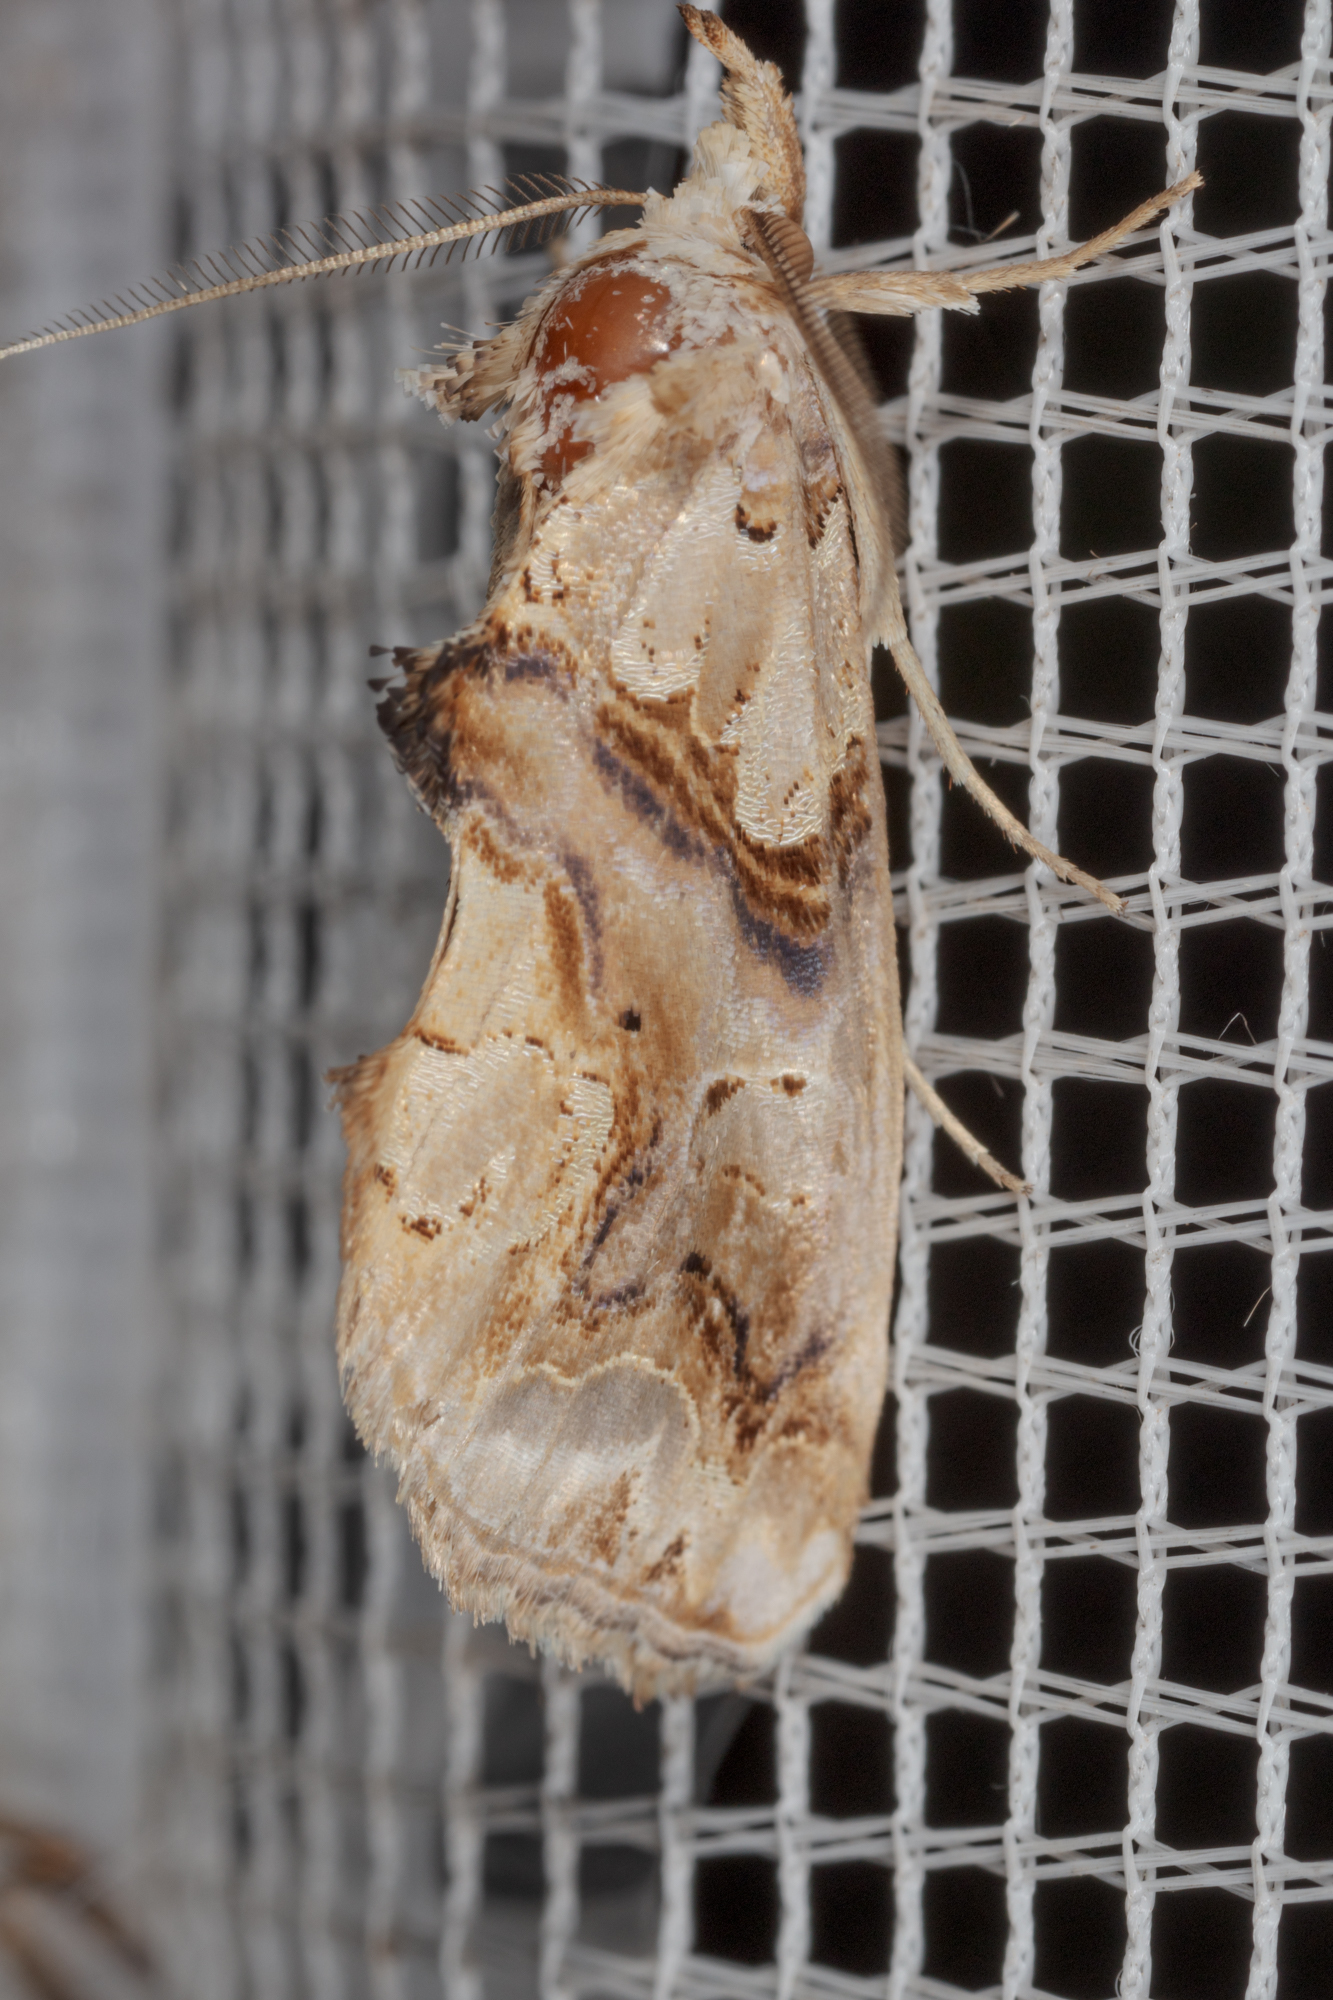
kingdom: Animalia
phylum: Arthropoda
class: Insecta
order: Lepidoptera
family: Erebidae
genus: Plusiodonta
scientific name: Plusiodonta compressipalpis
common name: Moonseed moth
